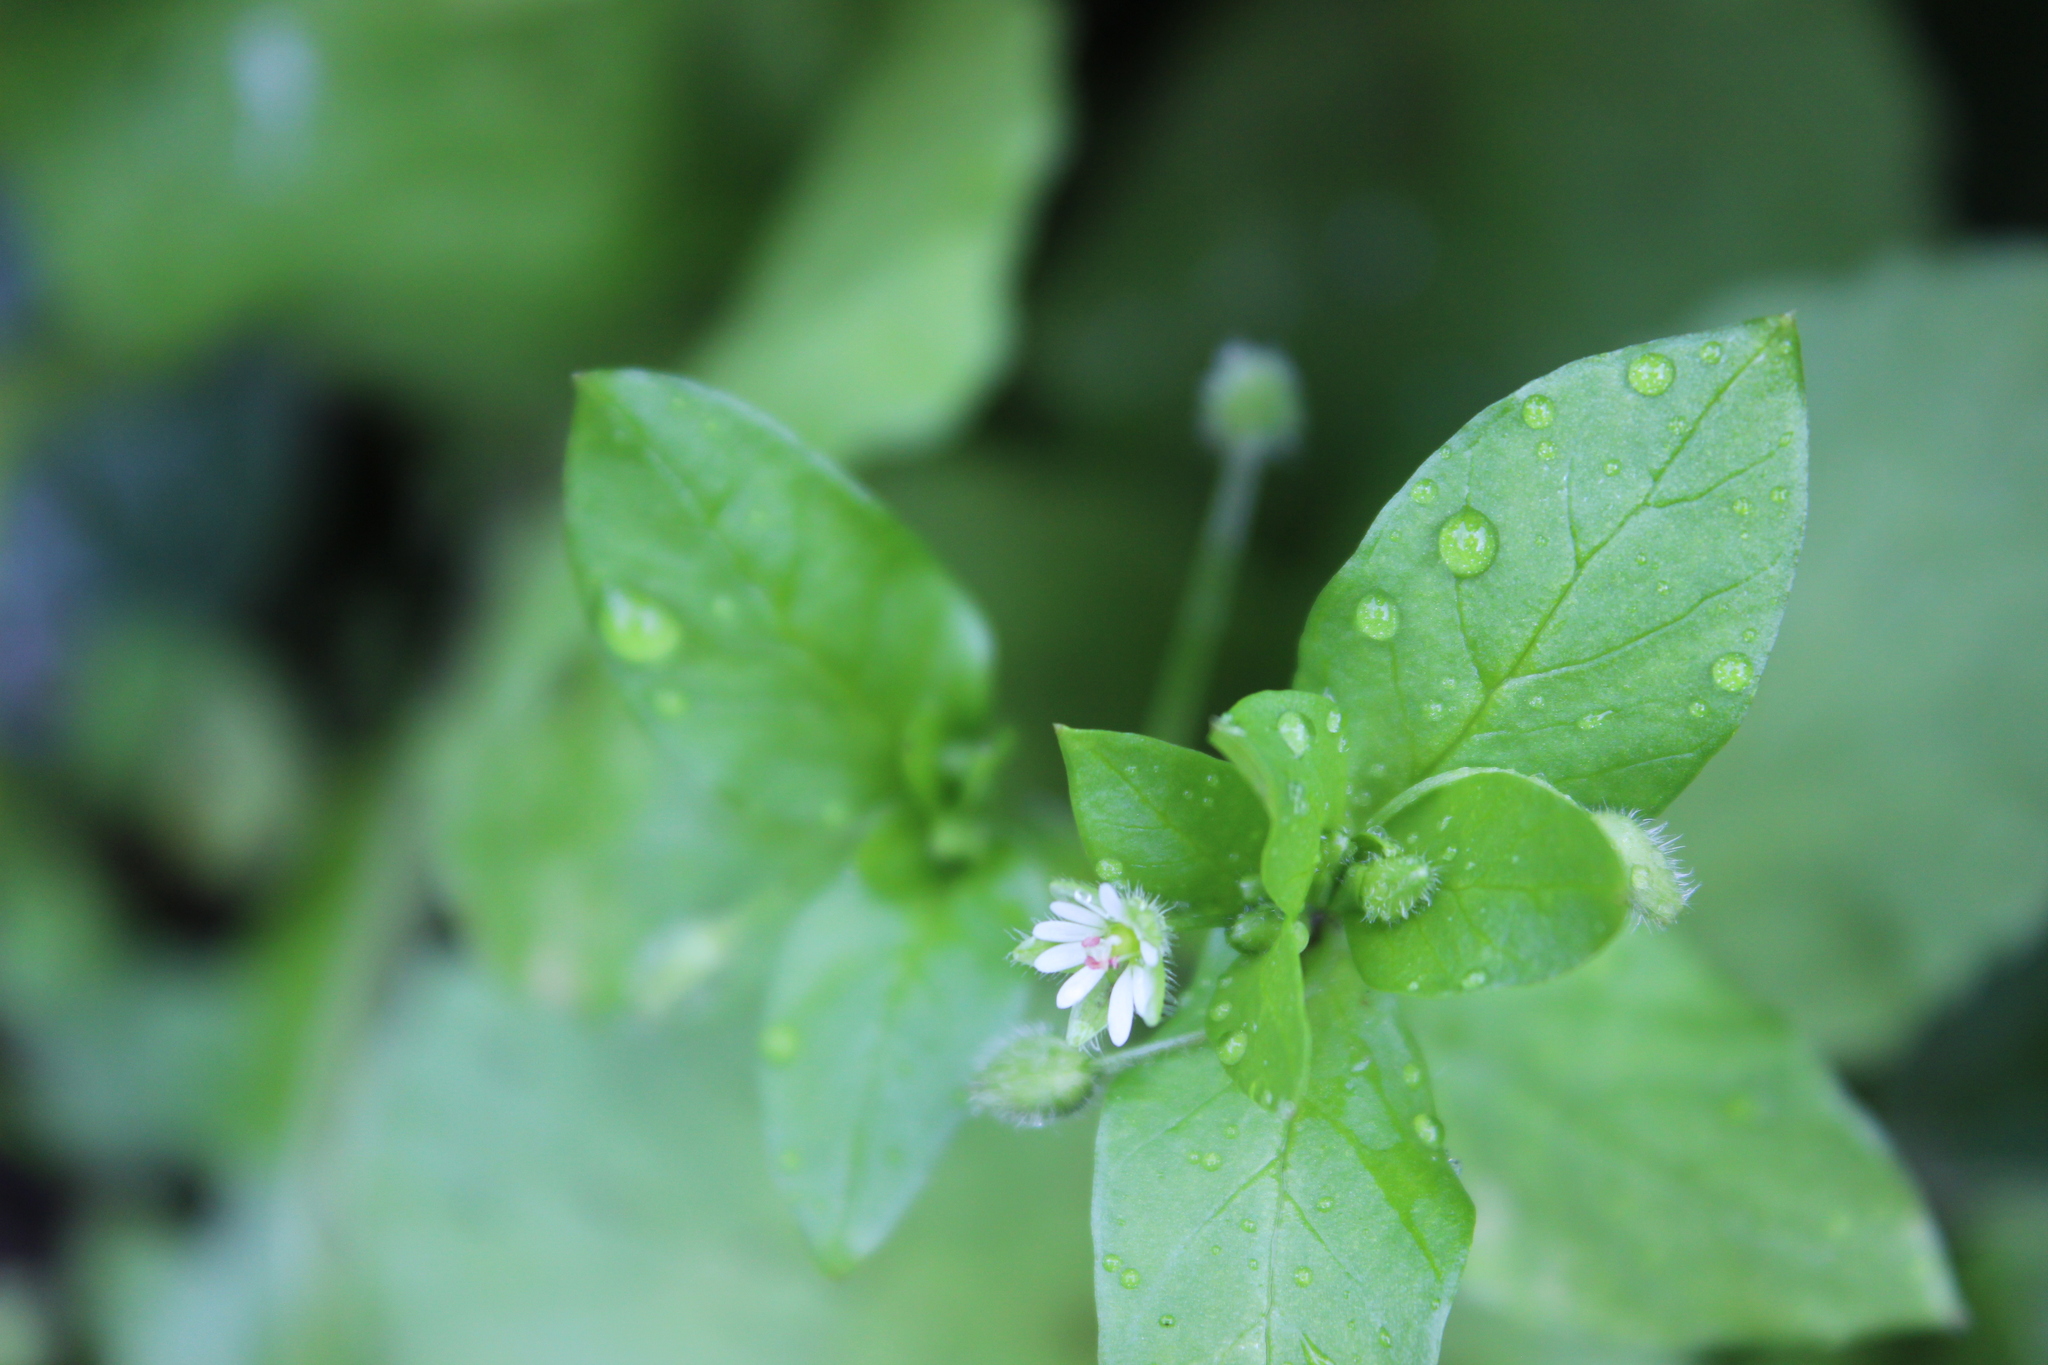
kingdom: Plantae
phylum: Tracheophyta
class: Magnoliopsida
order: Caryophyllales
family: Caryophyllaceae
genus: Stellaria
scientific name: Stellaria media
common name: Common chickweed
